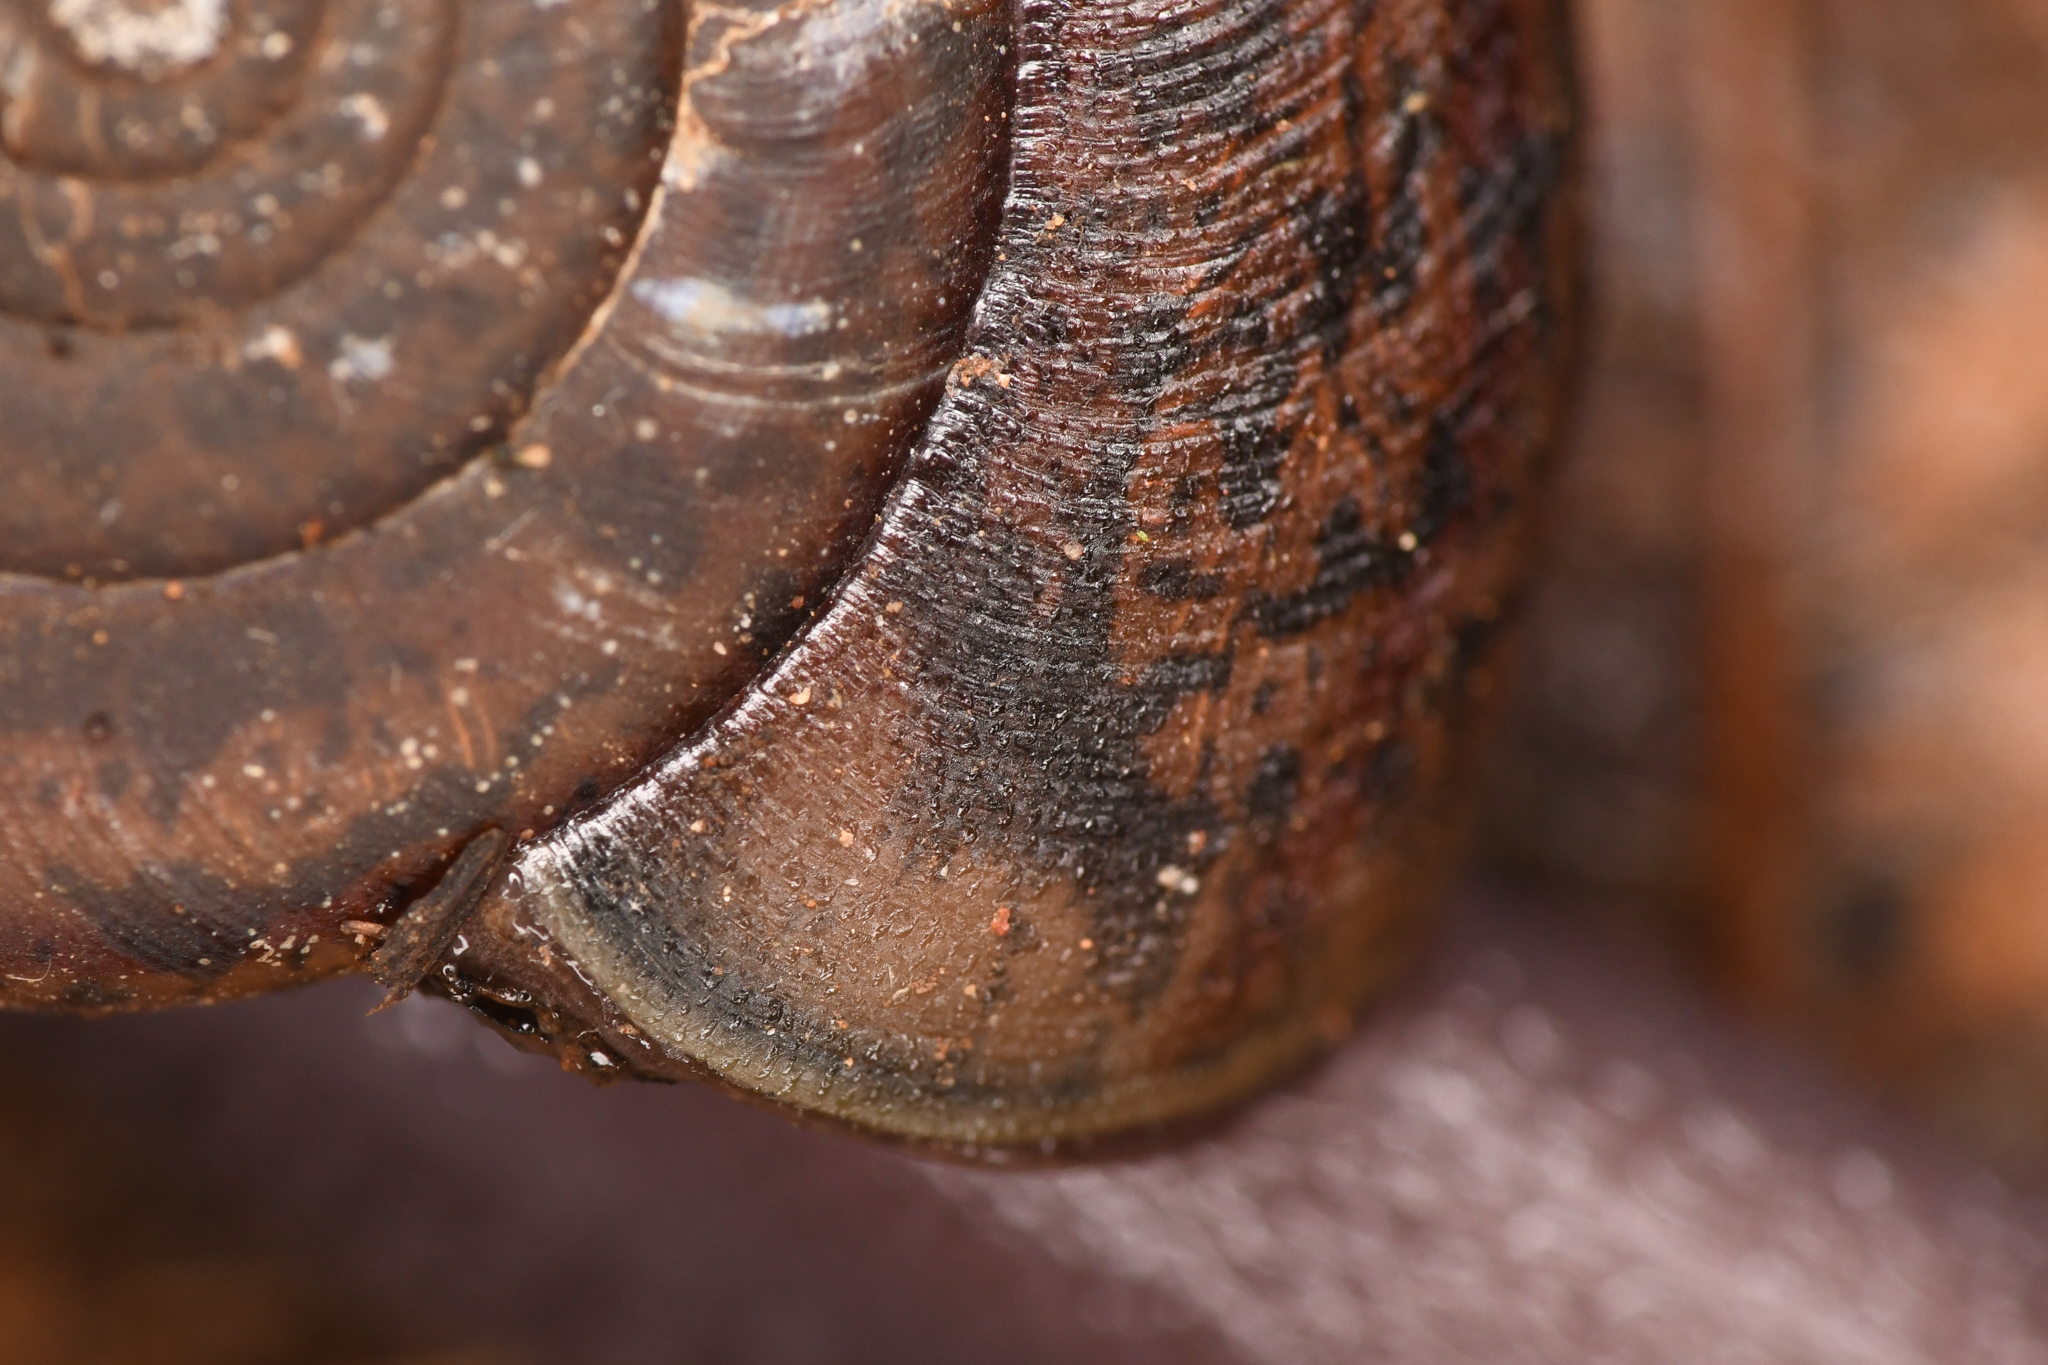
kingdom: Animalia
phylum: Mollusca
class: Gastropoda
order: Stylommatophora
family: Xanthonychidae
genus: Rothelix
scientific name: Rothelix rhodophila
